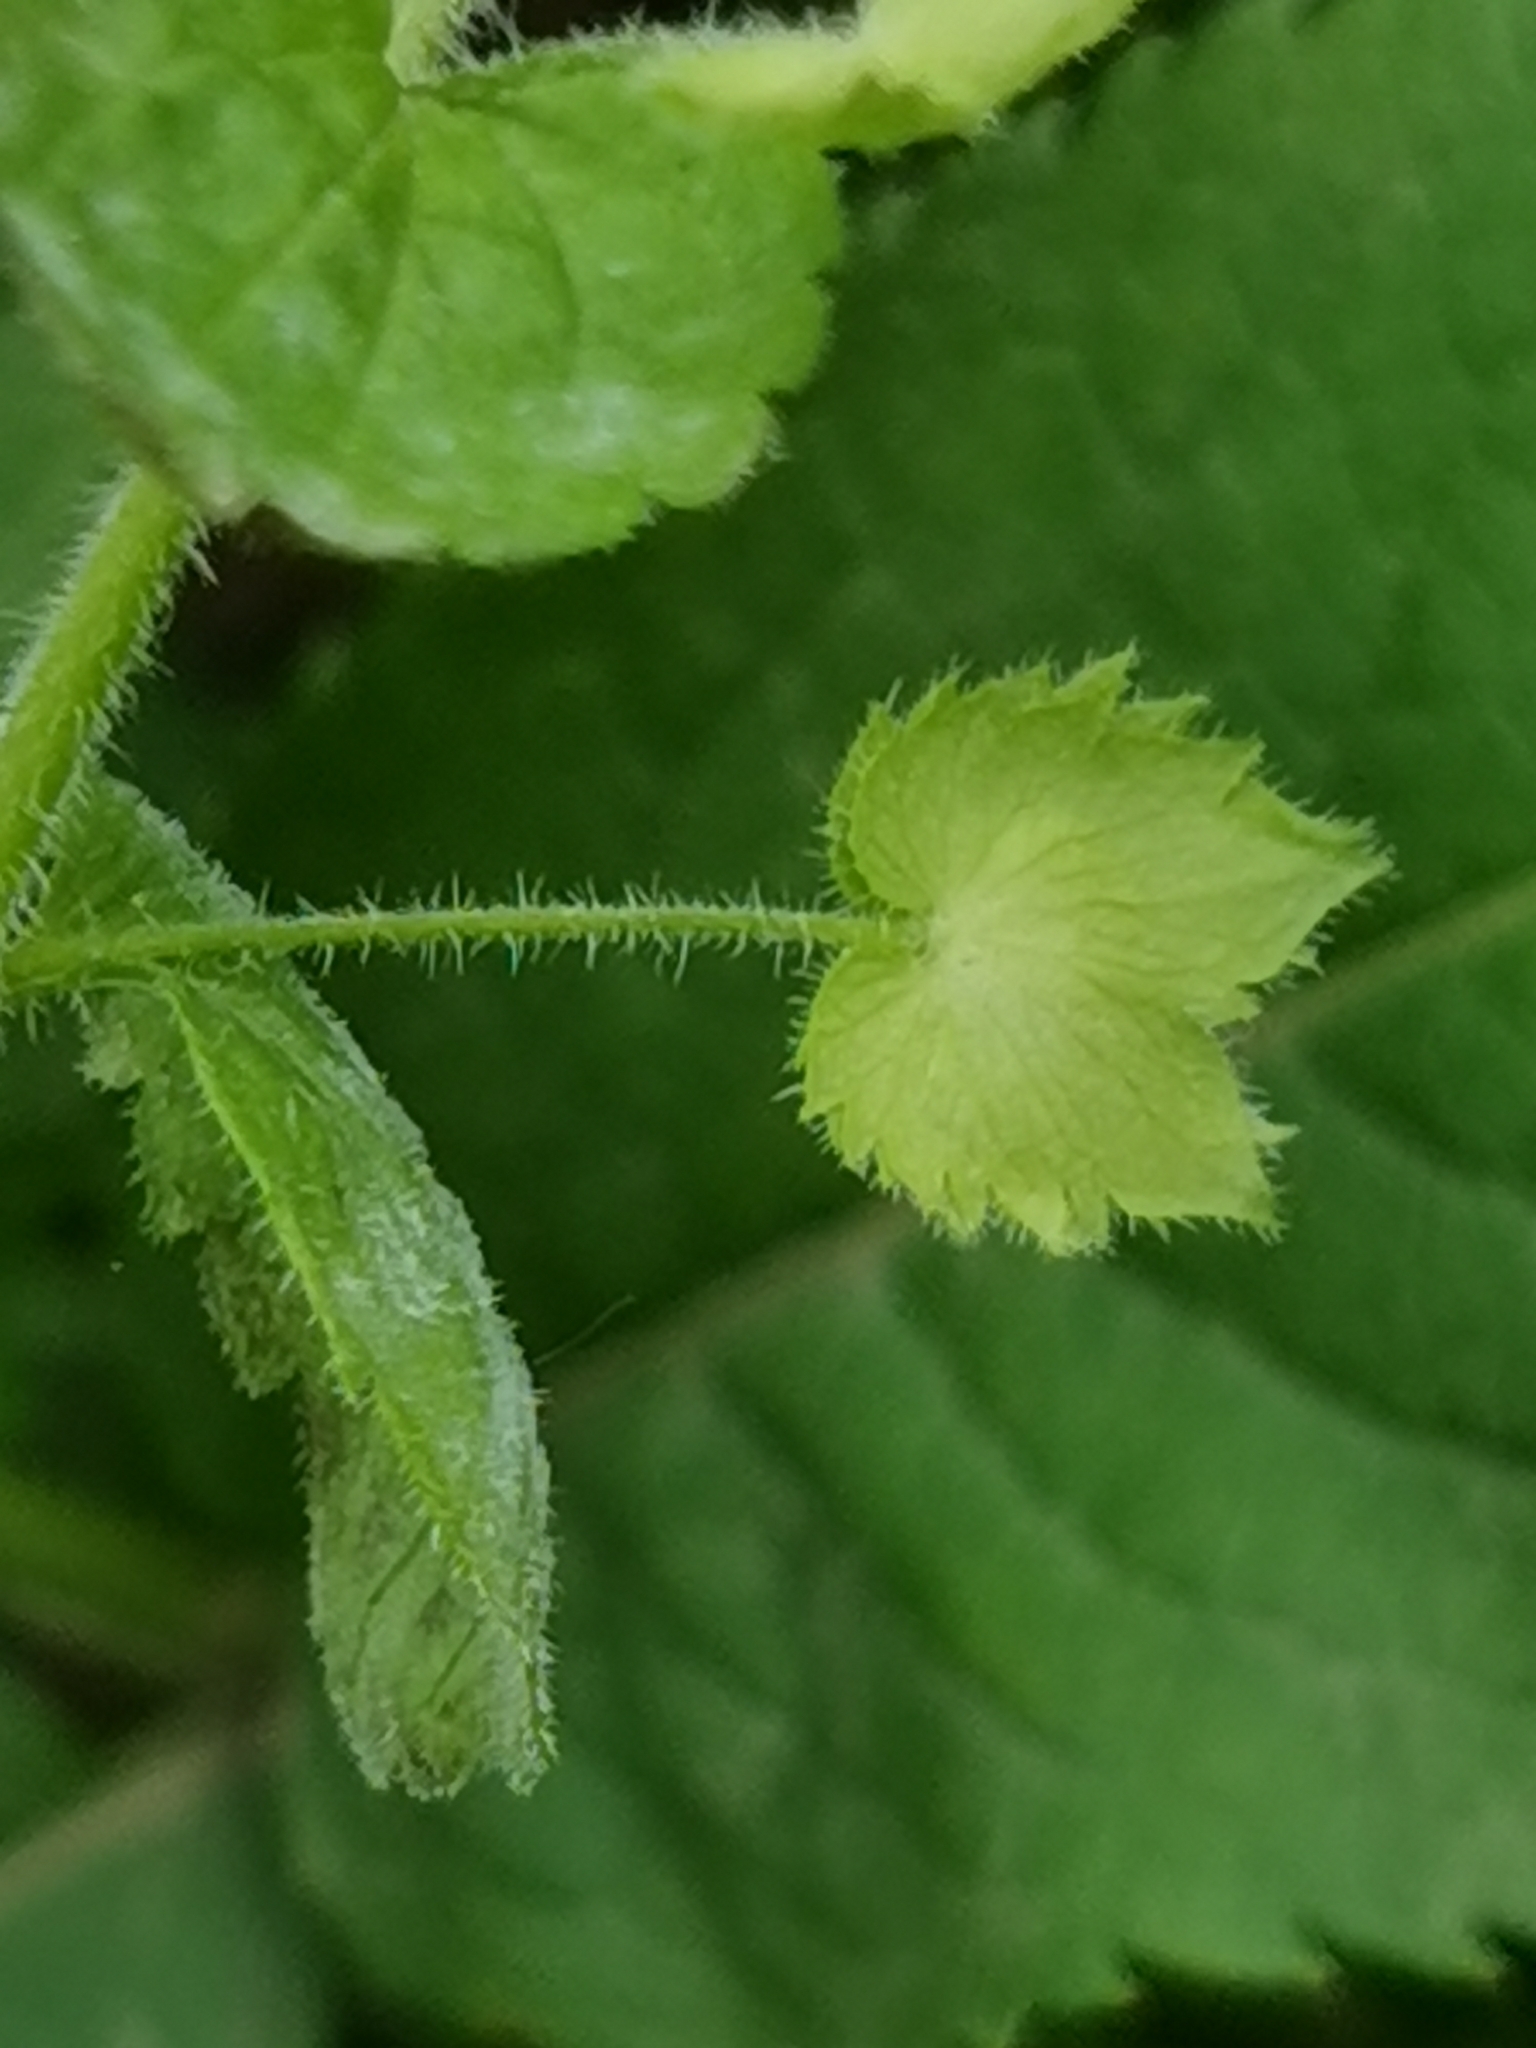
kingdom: Plantae
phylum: Tracheophyta
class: Magnoliopsida
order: Lamiales
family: Plantaginaceae
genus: Veronica
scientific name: Veronica crista-galli
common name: Crested field-speedwell
